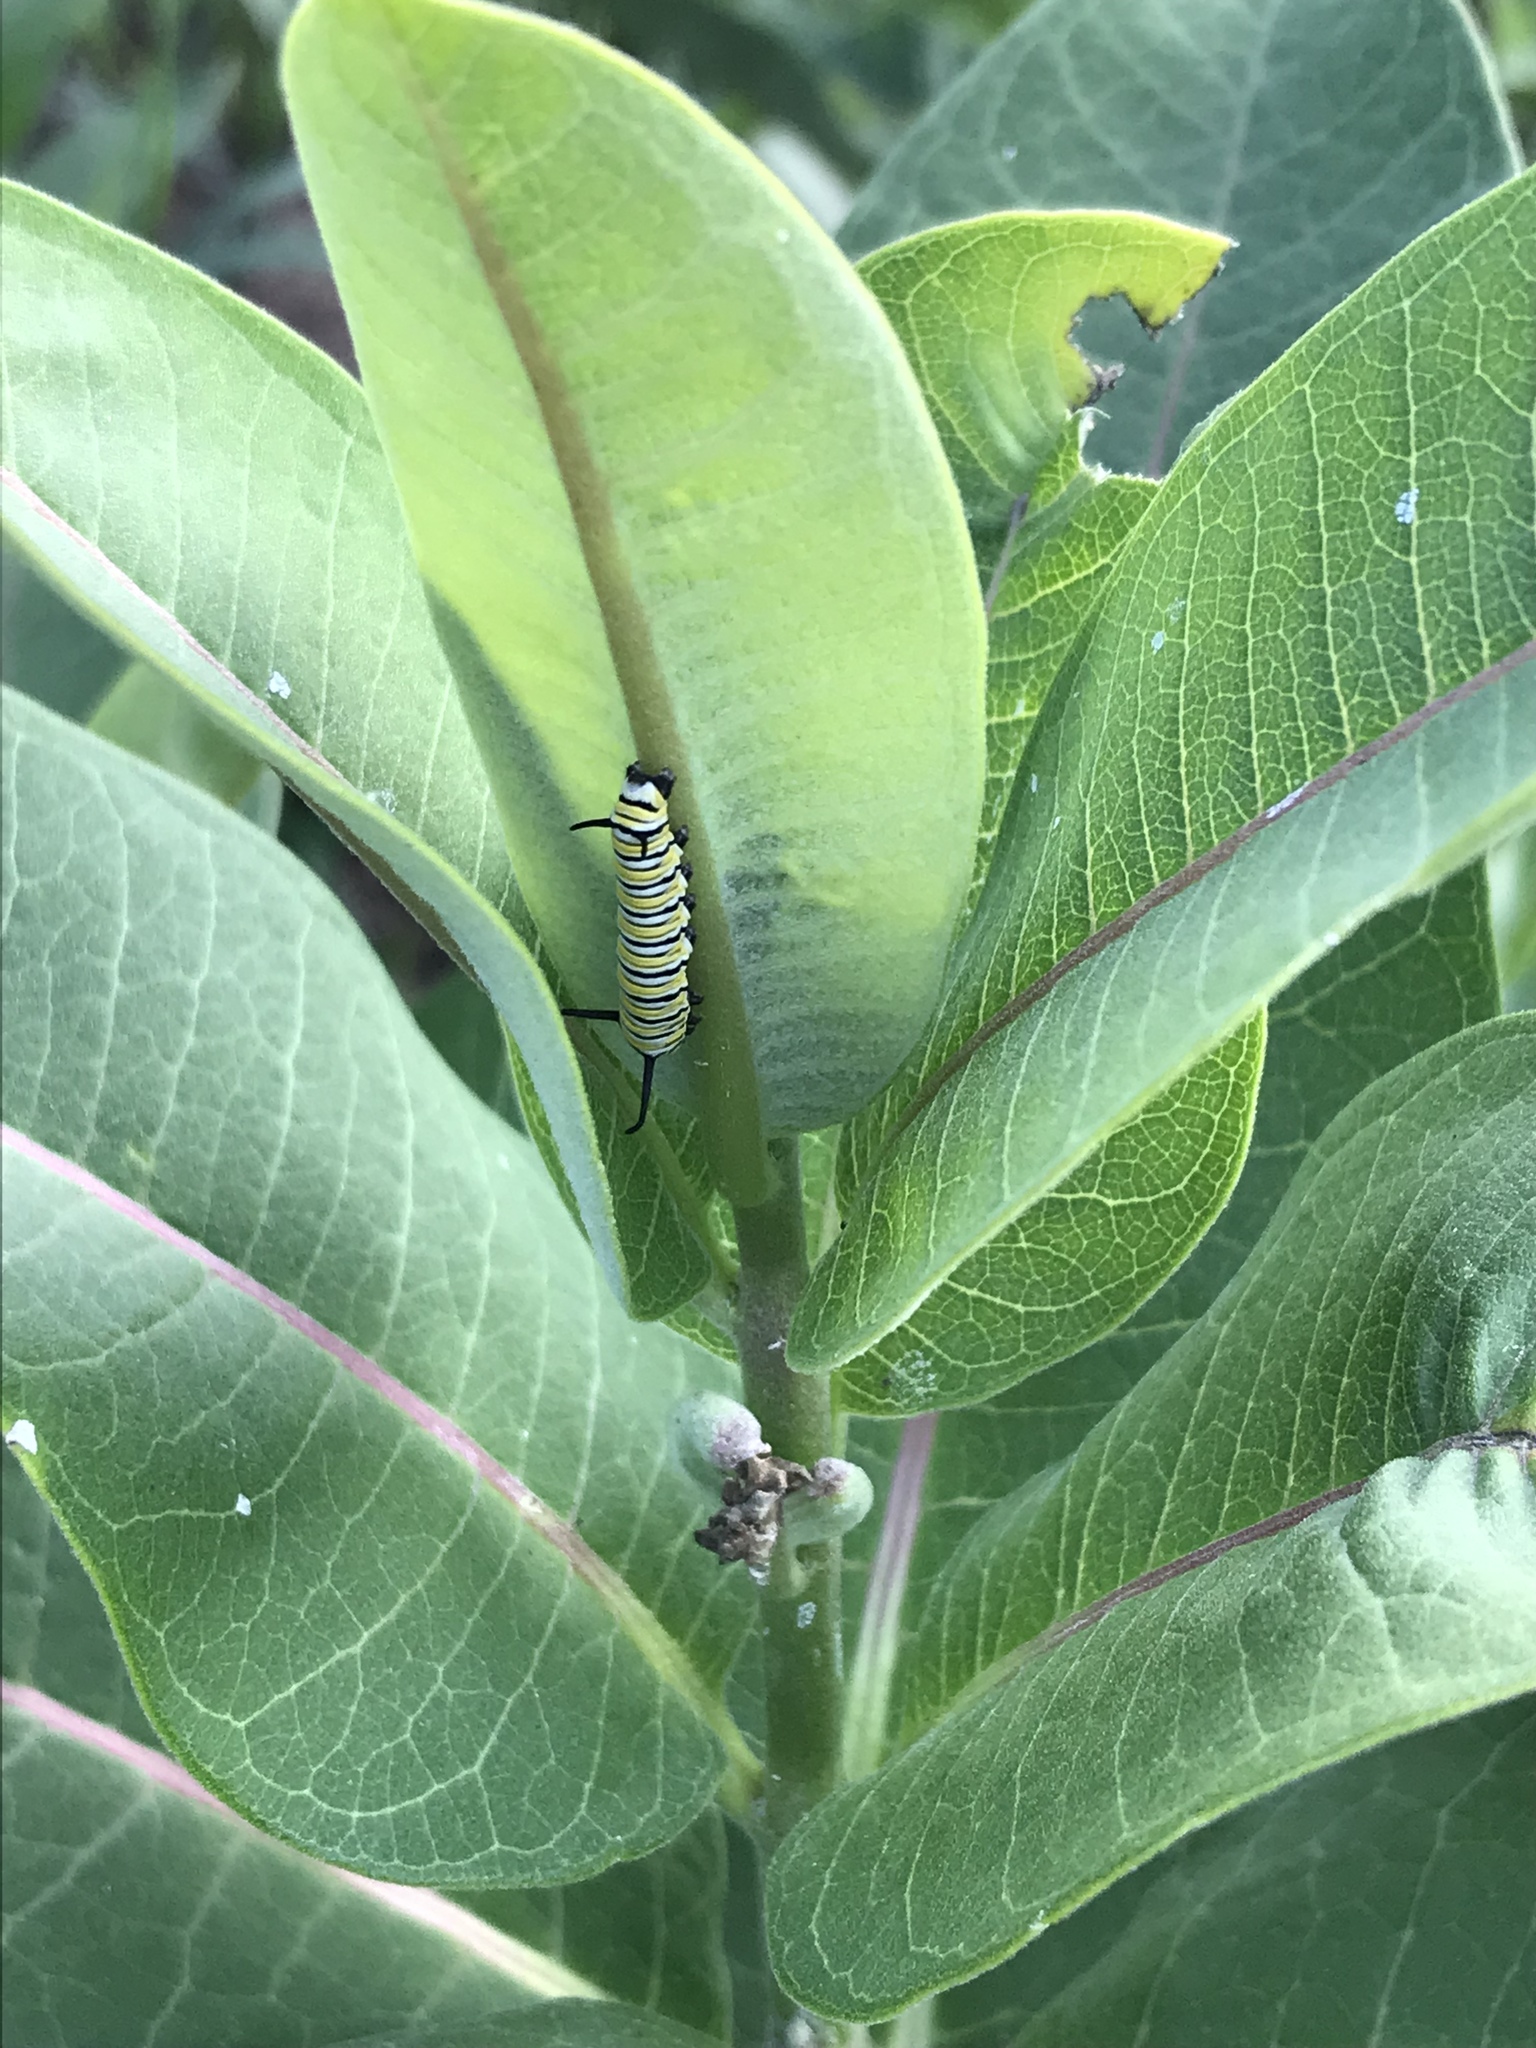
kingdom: Animalia
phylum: Arthropoda
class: Insecta
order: Lepidoptera
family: Nymphalidae
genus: Danaus
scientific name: Danaus plexippus
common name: Monarch
